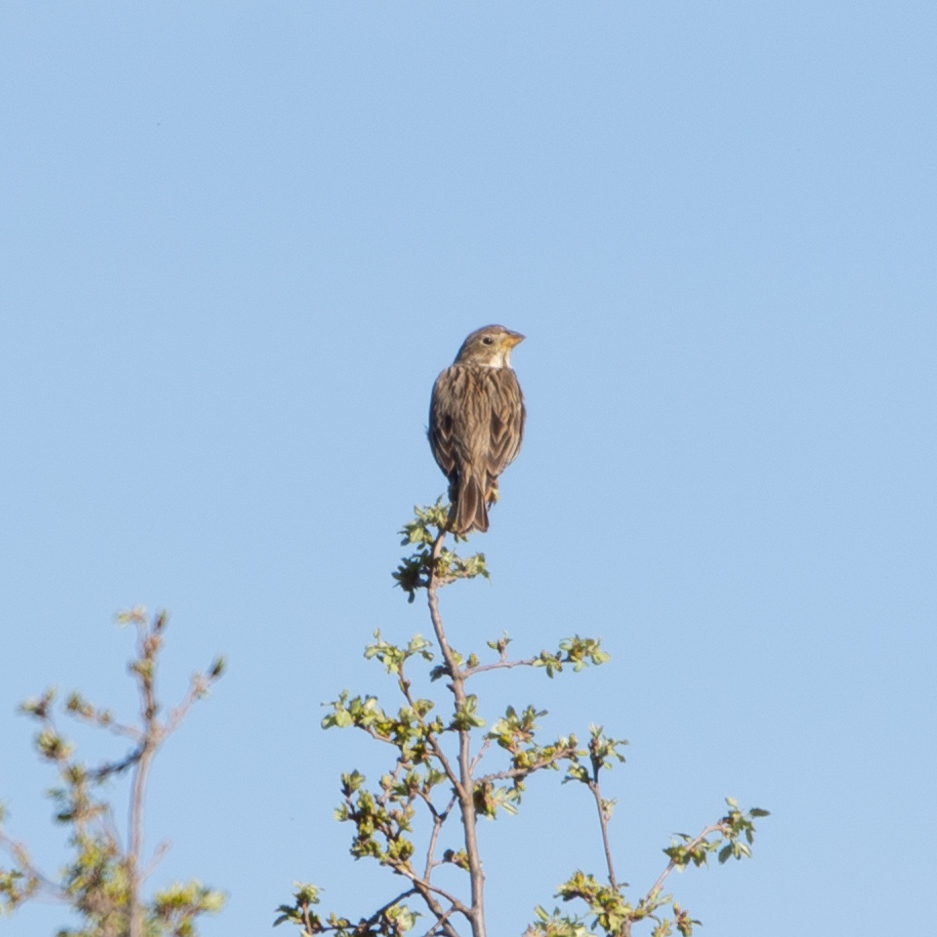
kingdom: Animalia
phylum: Chordata
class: Aves
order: Passeriformes
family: Emberizidae
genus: Emberiza
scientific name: Emberiza calandra
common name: Corn bunting
